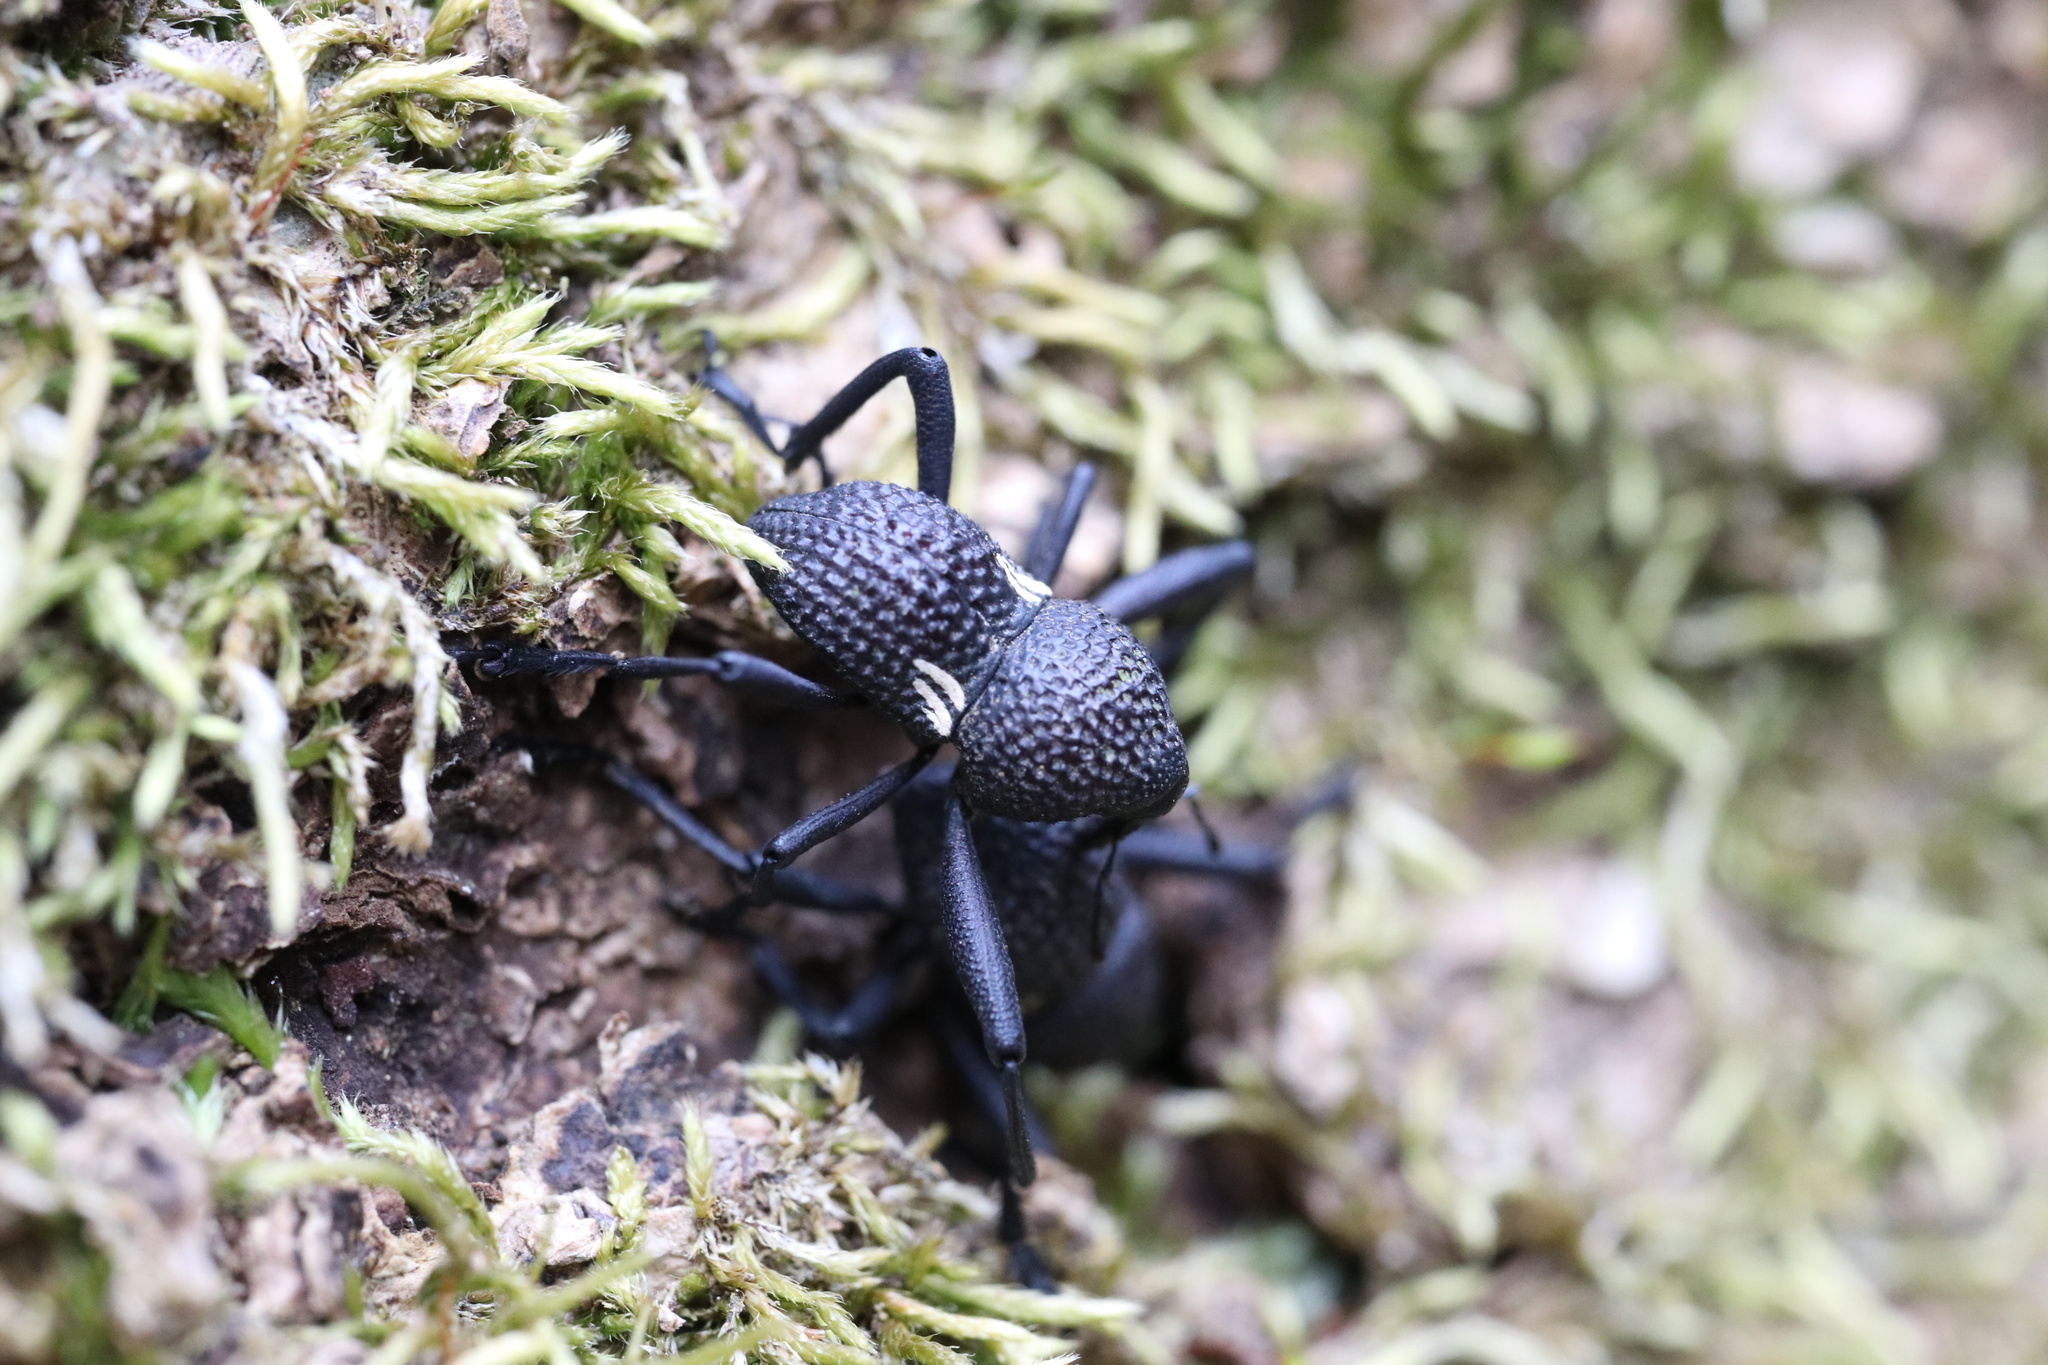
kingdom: Animalia
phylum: Arthropoda
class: Insecta
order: Coleoptera
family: Curculionidae
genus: Rhyephenes
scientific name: Rhyephenes humeralis
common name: Araè±ita chilena del pino
